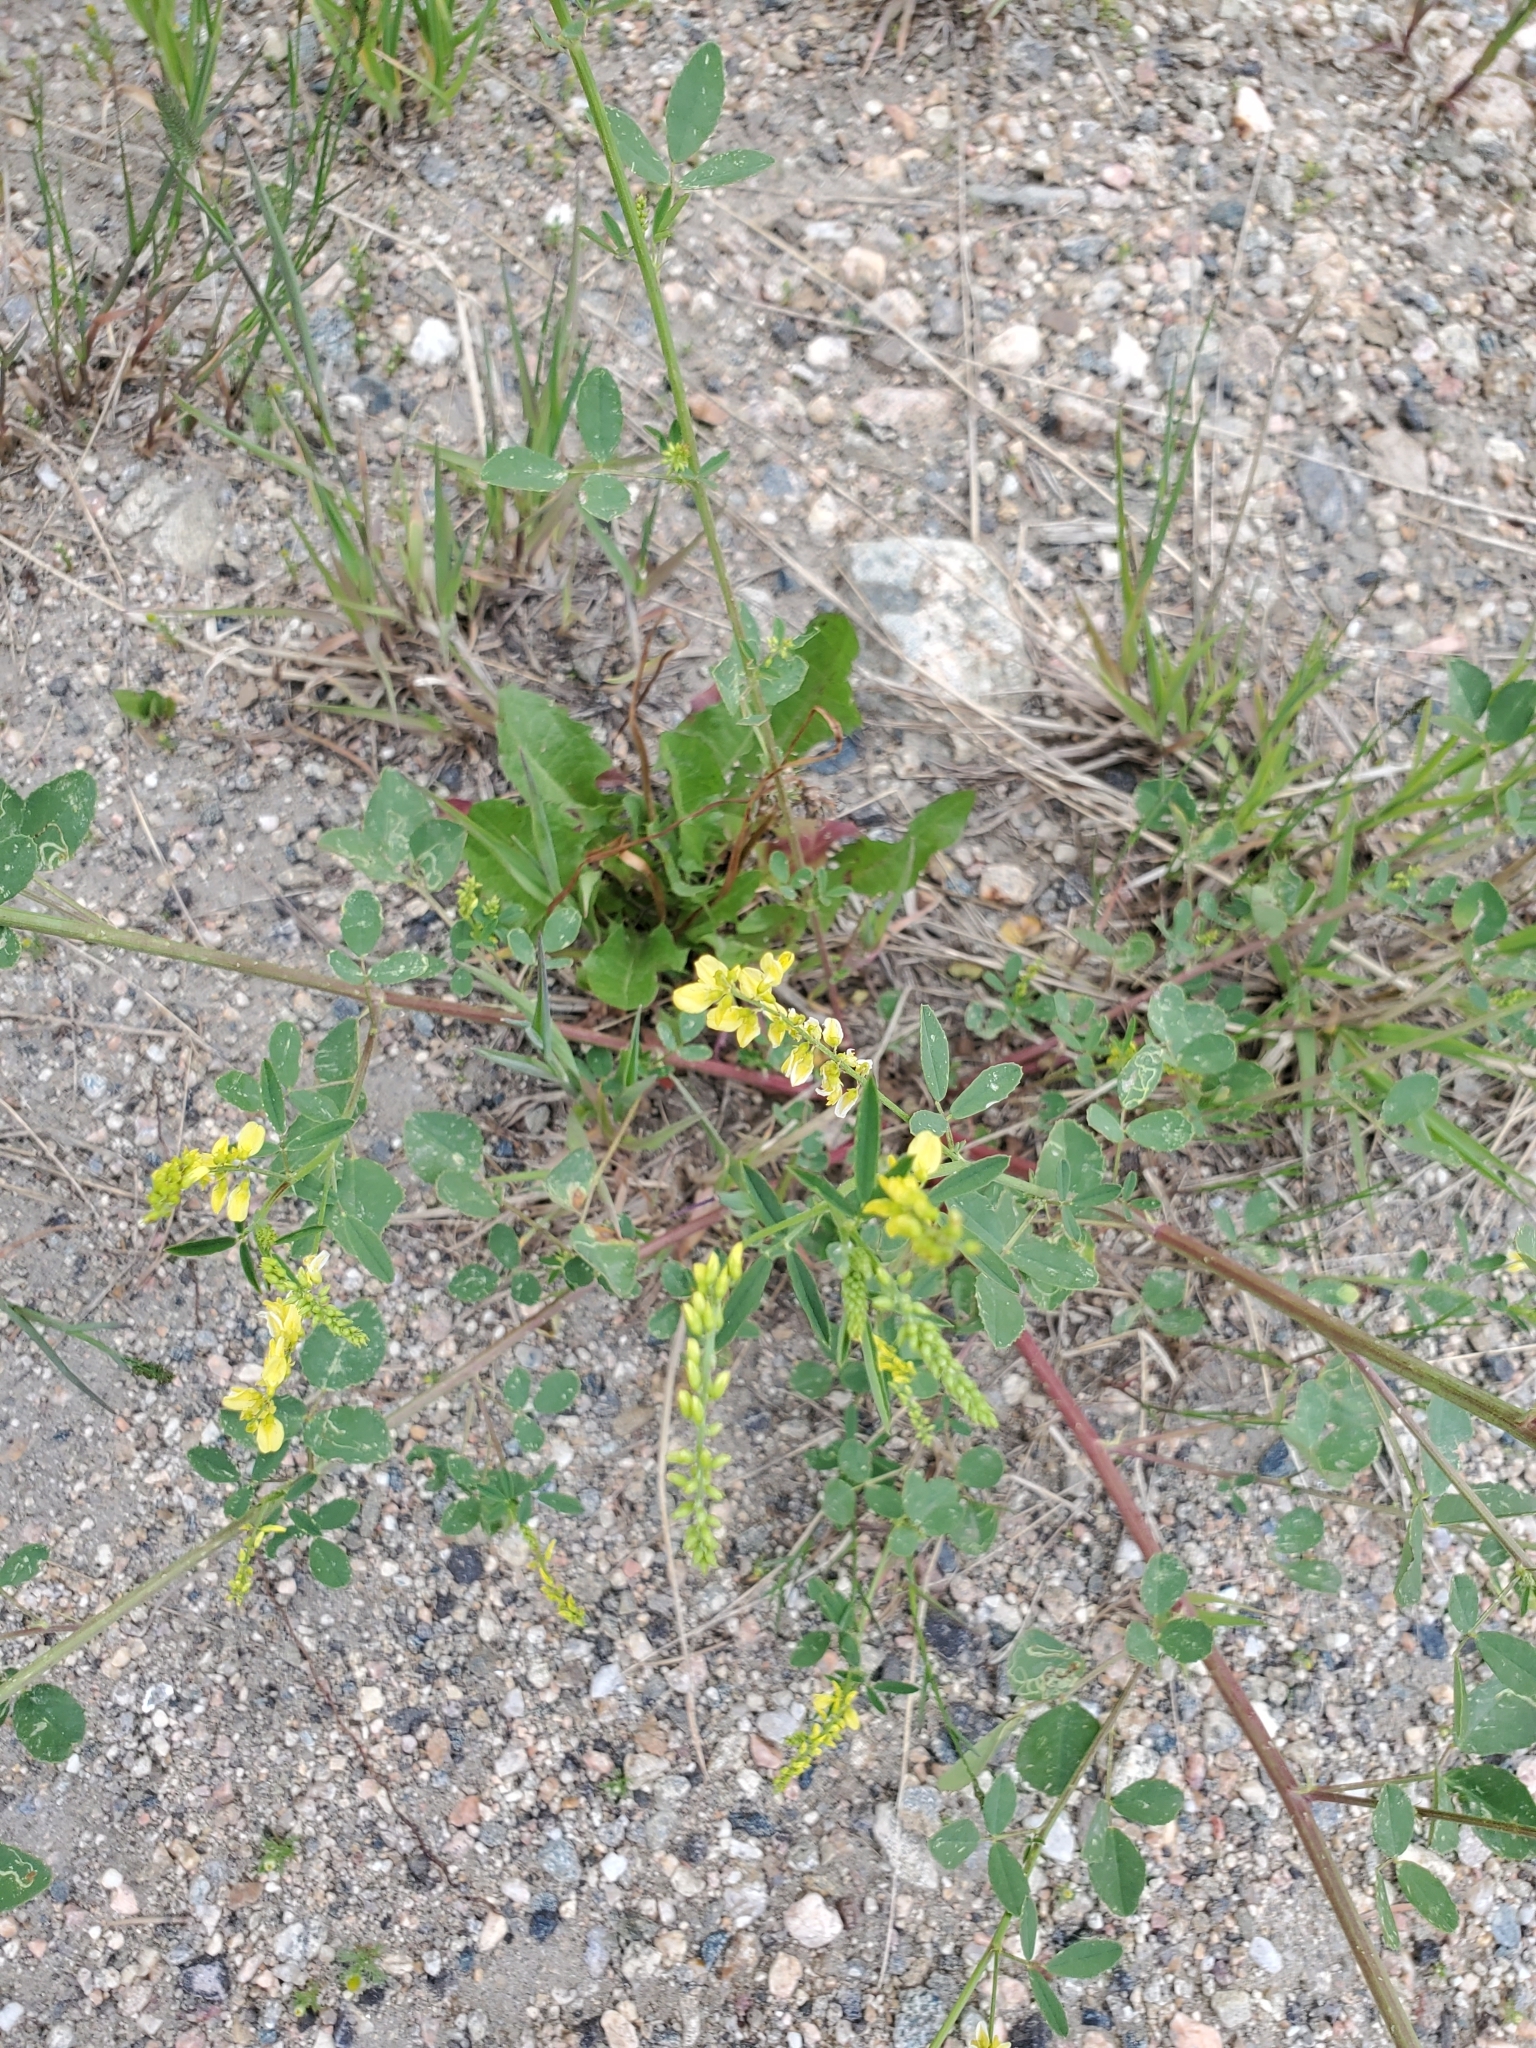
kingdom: Plantae
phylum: Tracheophyta
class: Magnoliopsida
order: Fabales
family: Fabaceae
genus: Melilotus
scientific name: Melilotus officinalis
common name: Sweetclover
